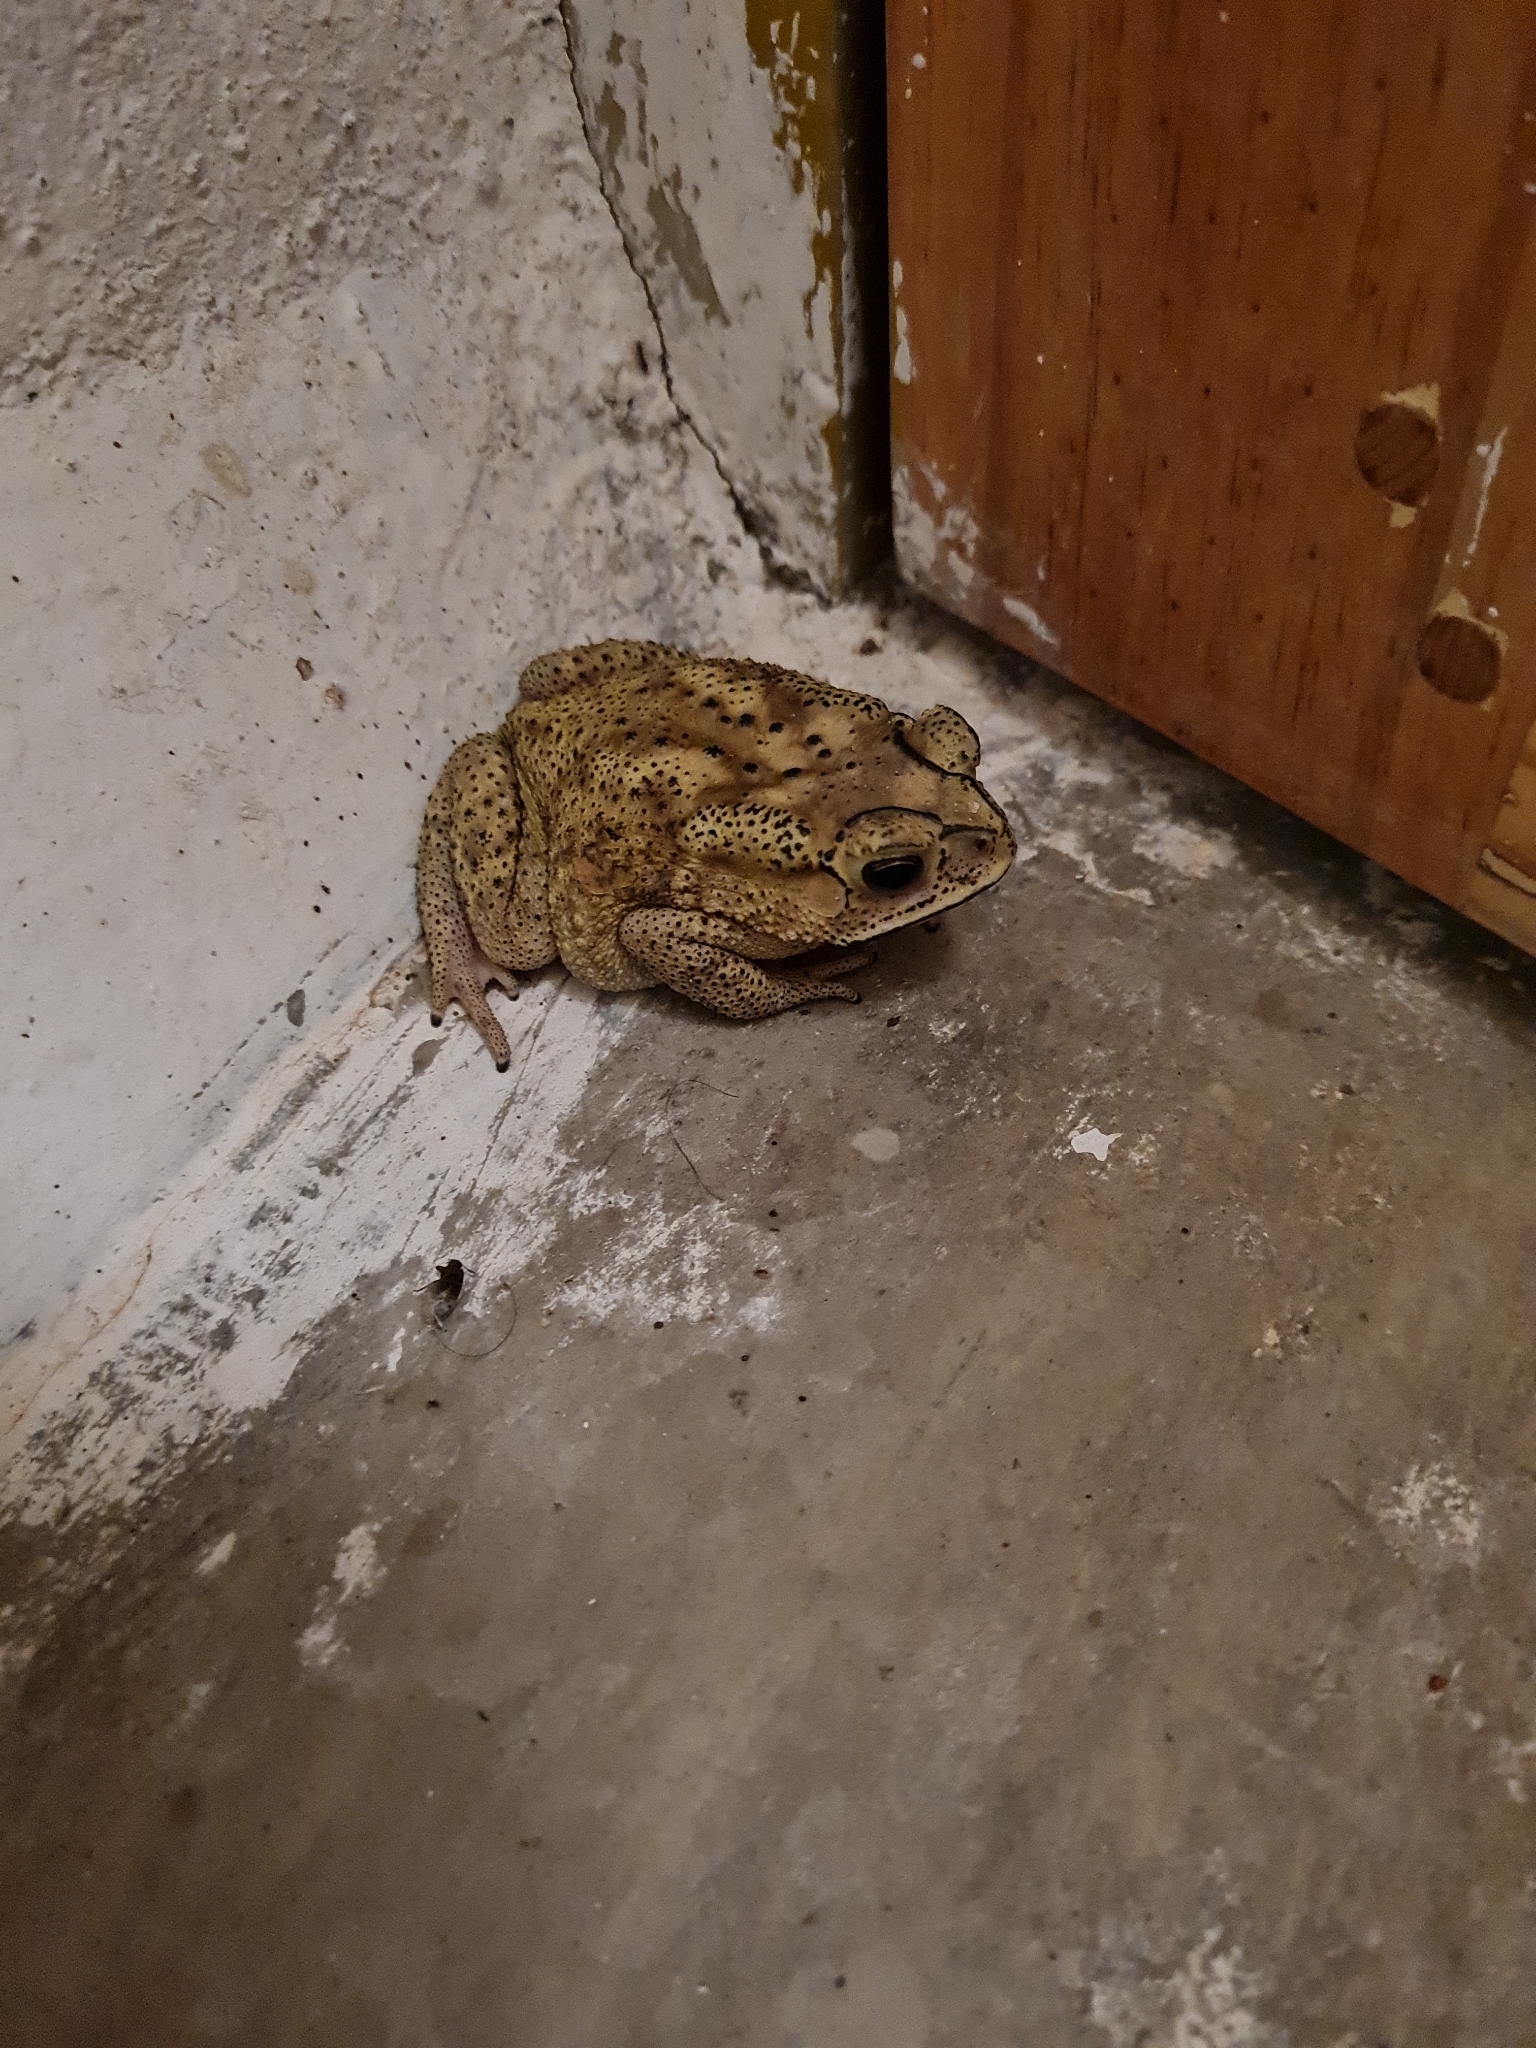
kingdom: Animalia
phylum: Chordata
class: Amphibia
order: Anura
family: Bufonidae
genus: Duttaphrynus
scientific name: Duttaphrynus melanostictus
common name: Common sunda toad
